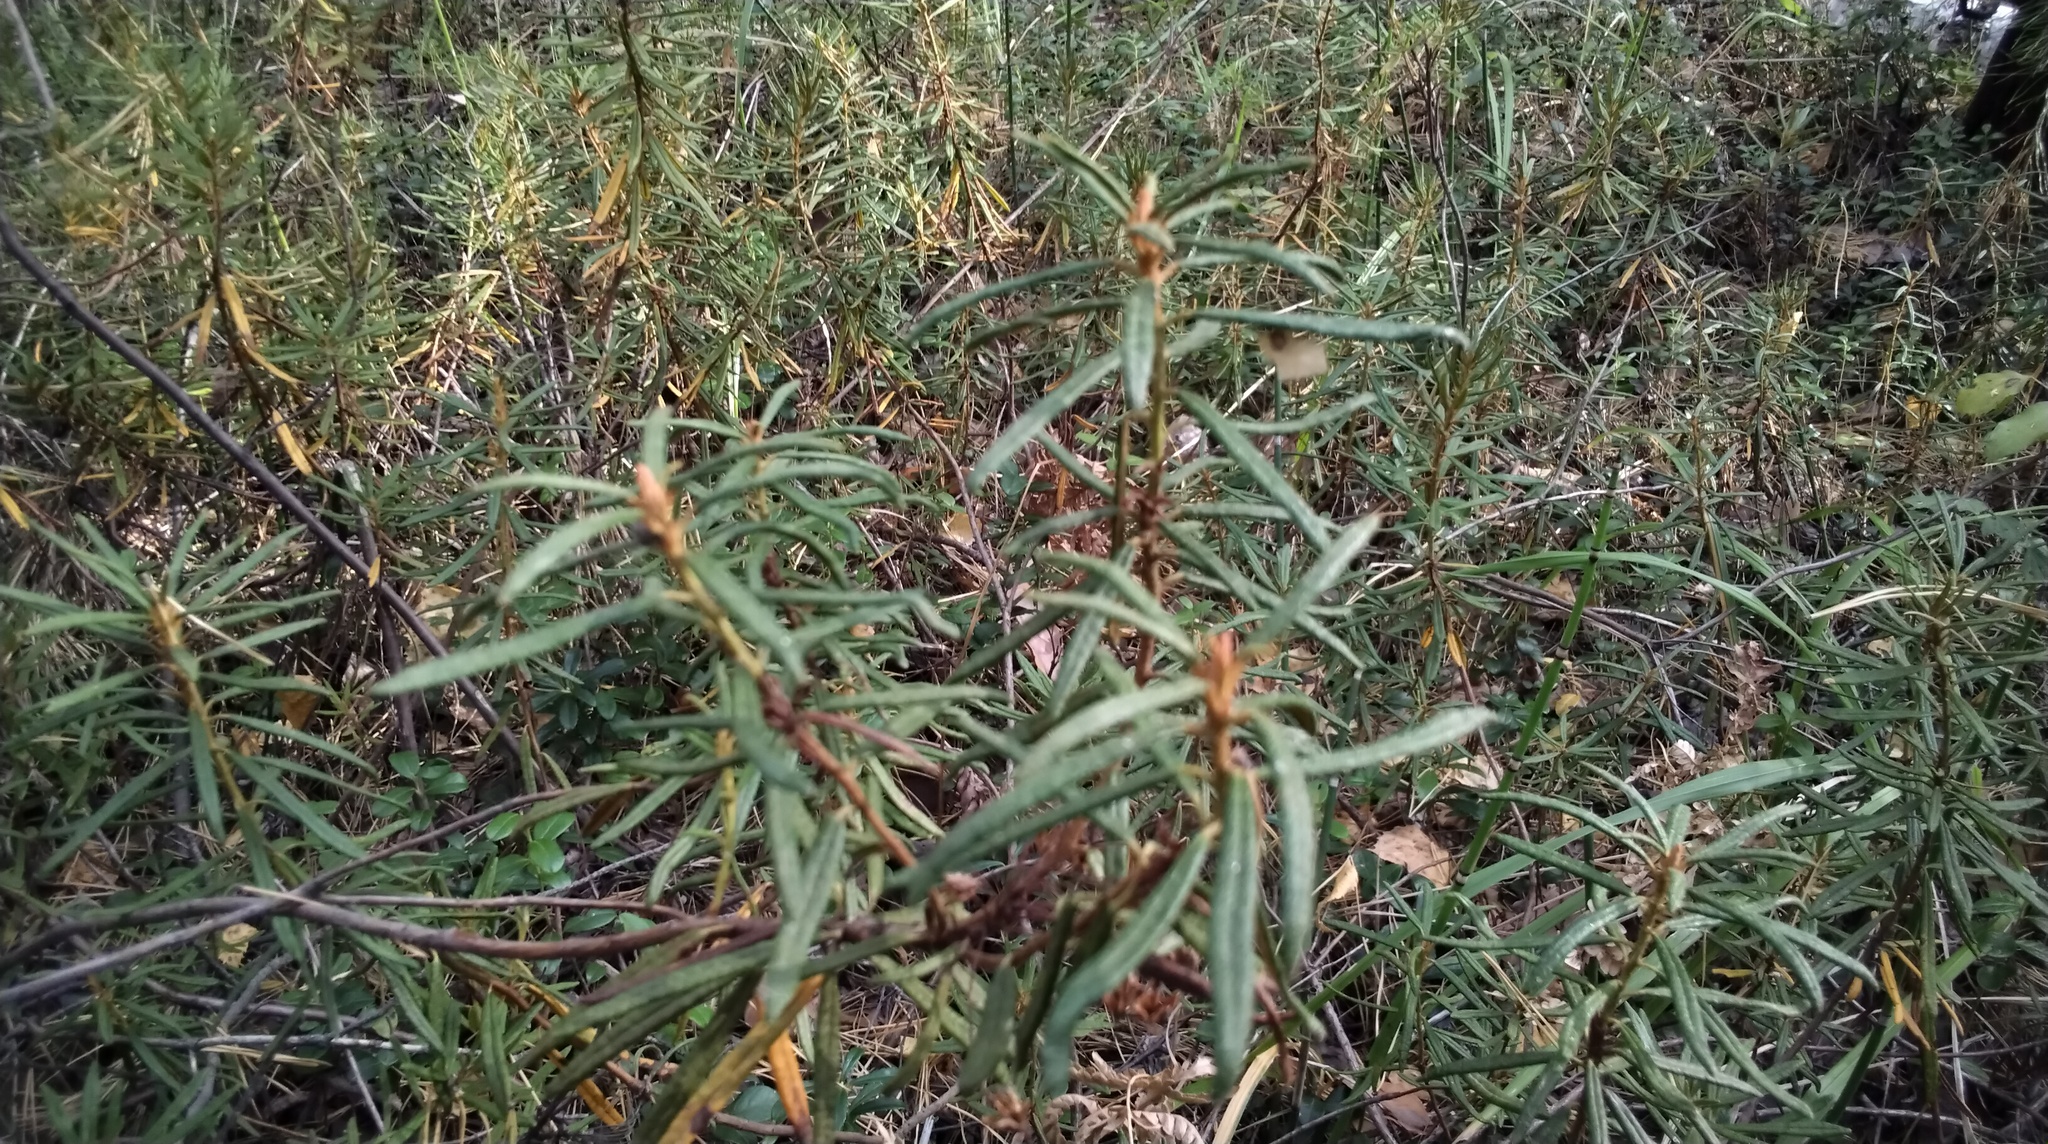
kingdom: Plantae
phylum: Tracheophyta
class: Magnoliopsida
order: Ericales
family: Ericaceae
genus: Rhododendron
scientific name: Rhododendron tomentosum
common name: Marsh labrador tea
